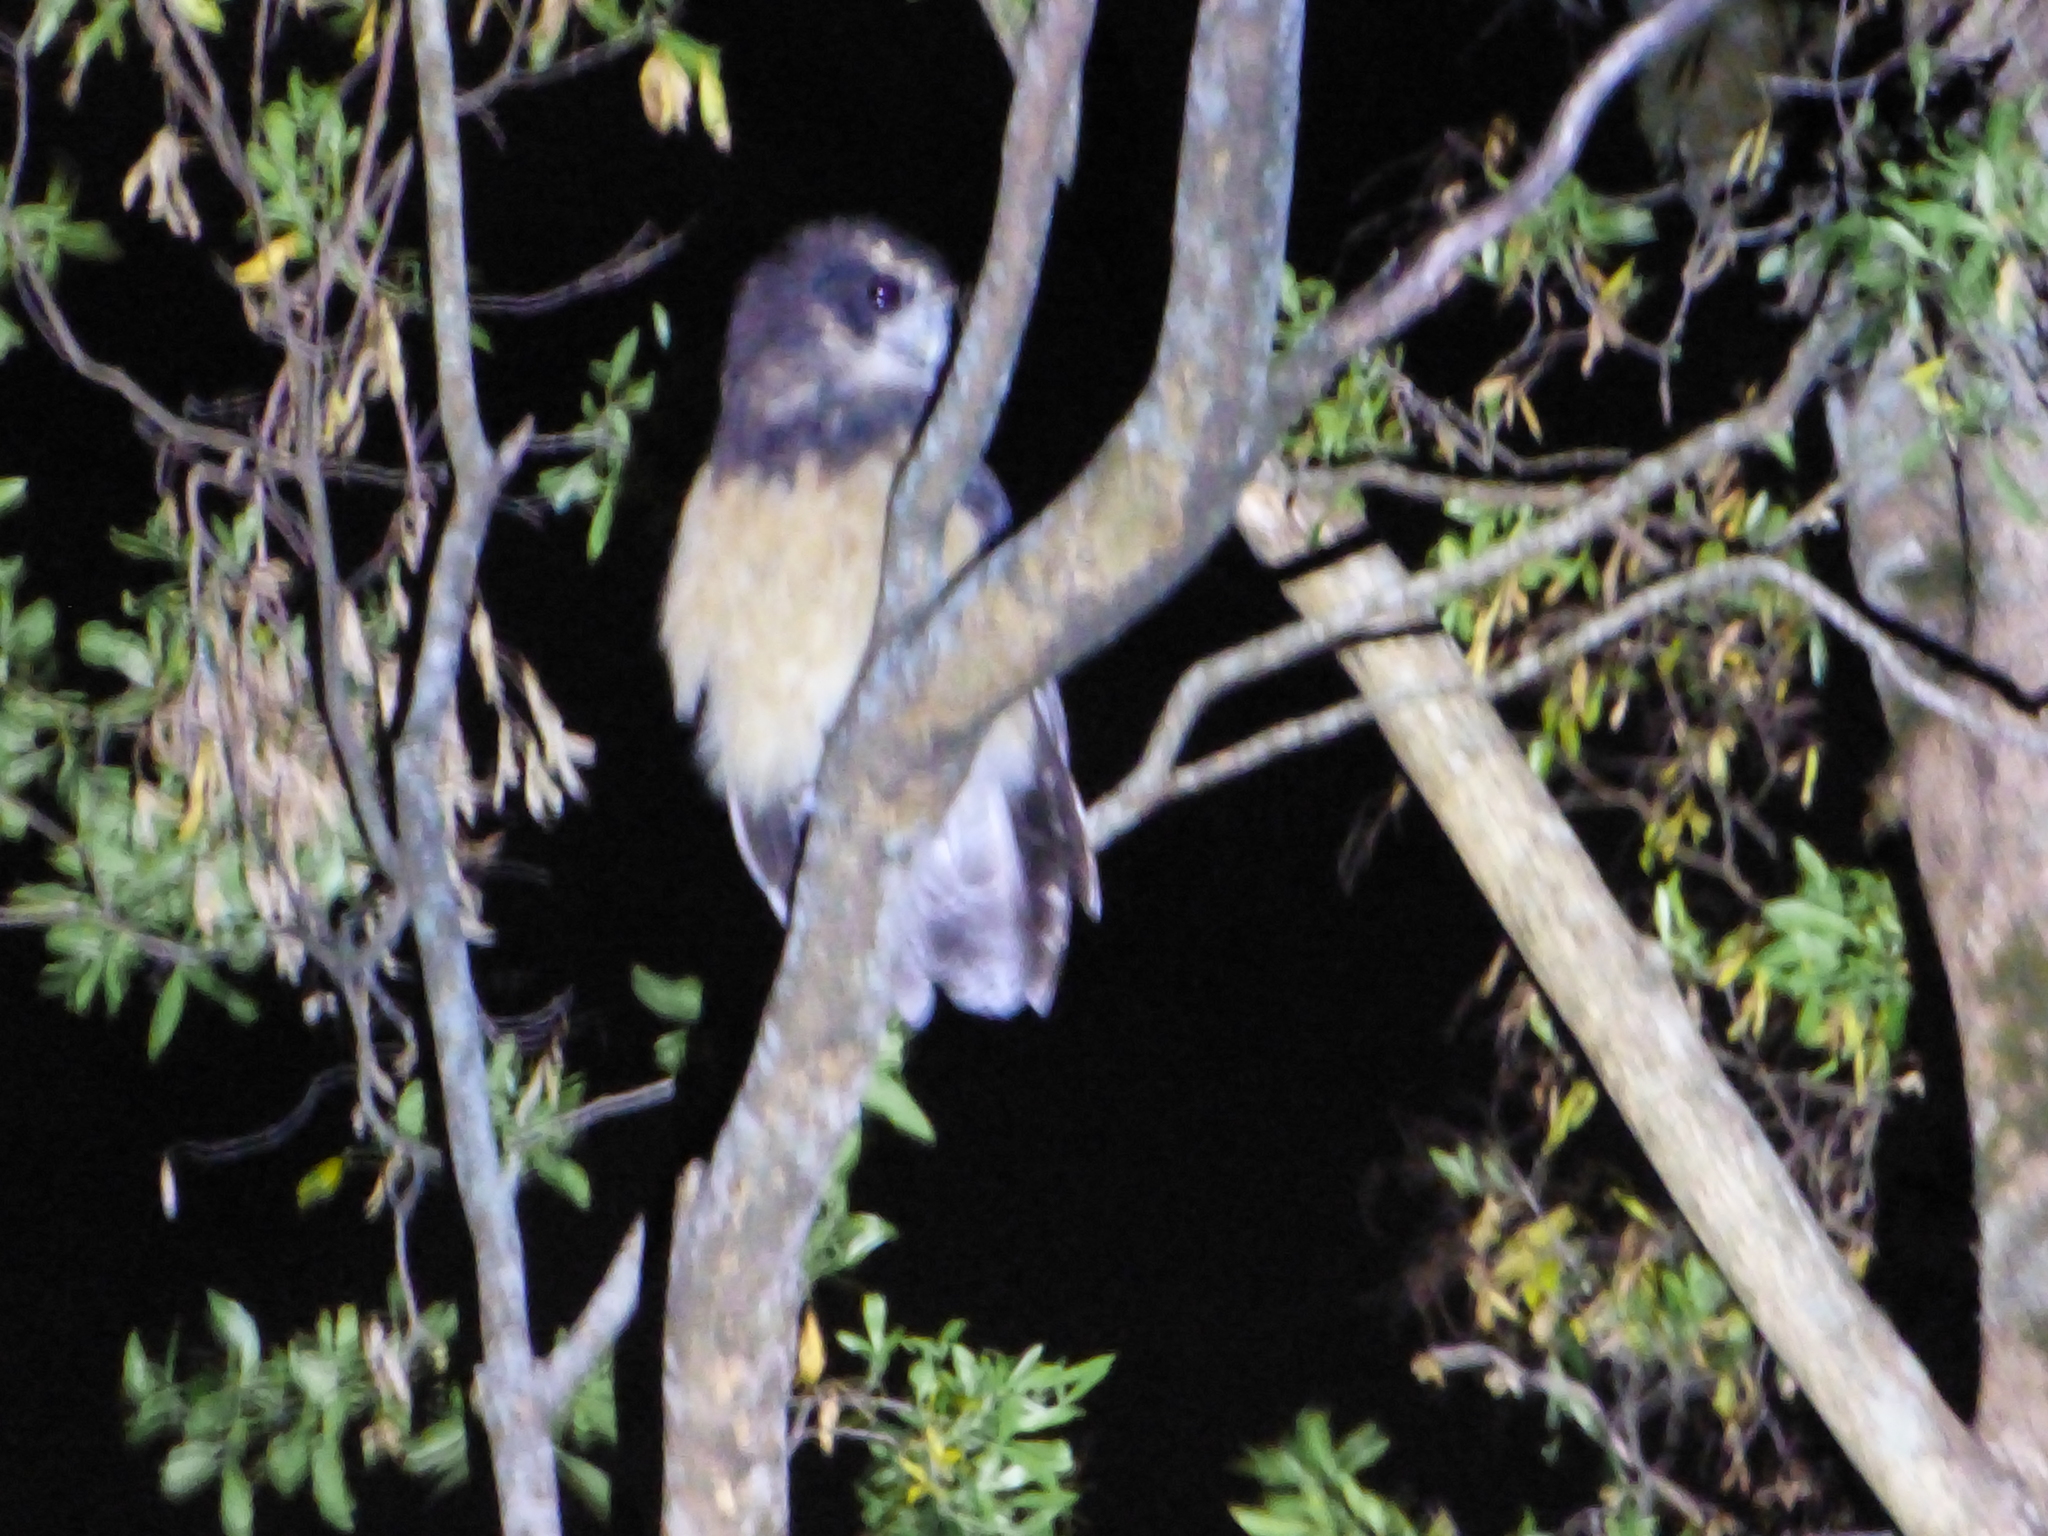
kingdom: Animalia
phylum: Chordata
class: Aves
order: Strigiformes
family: Strigidae
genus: Pulsatrix
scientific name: Pulsatrix koeniswaldiana
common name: Tawny-browed owl
